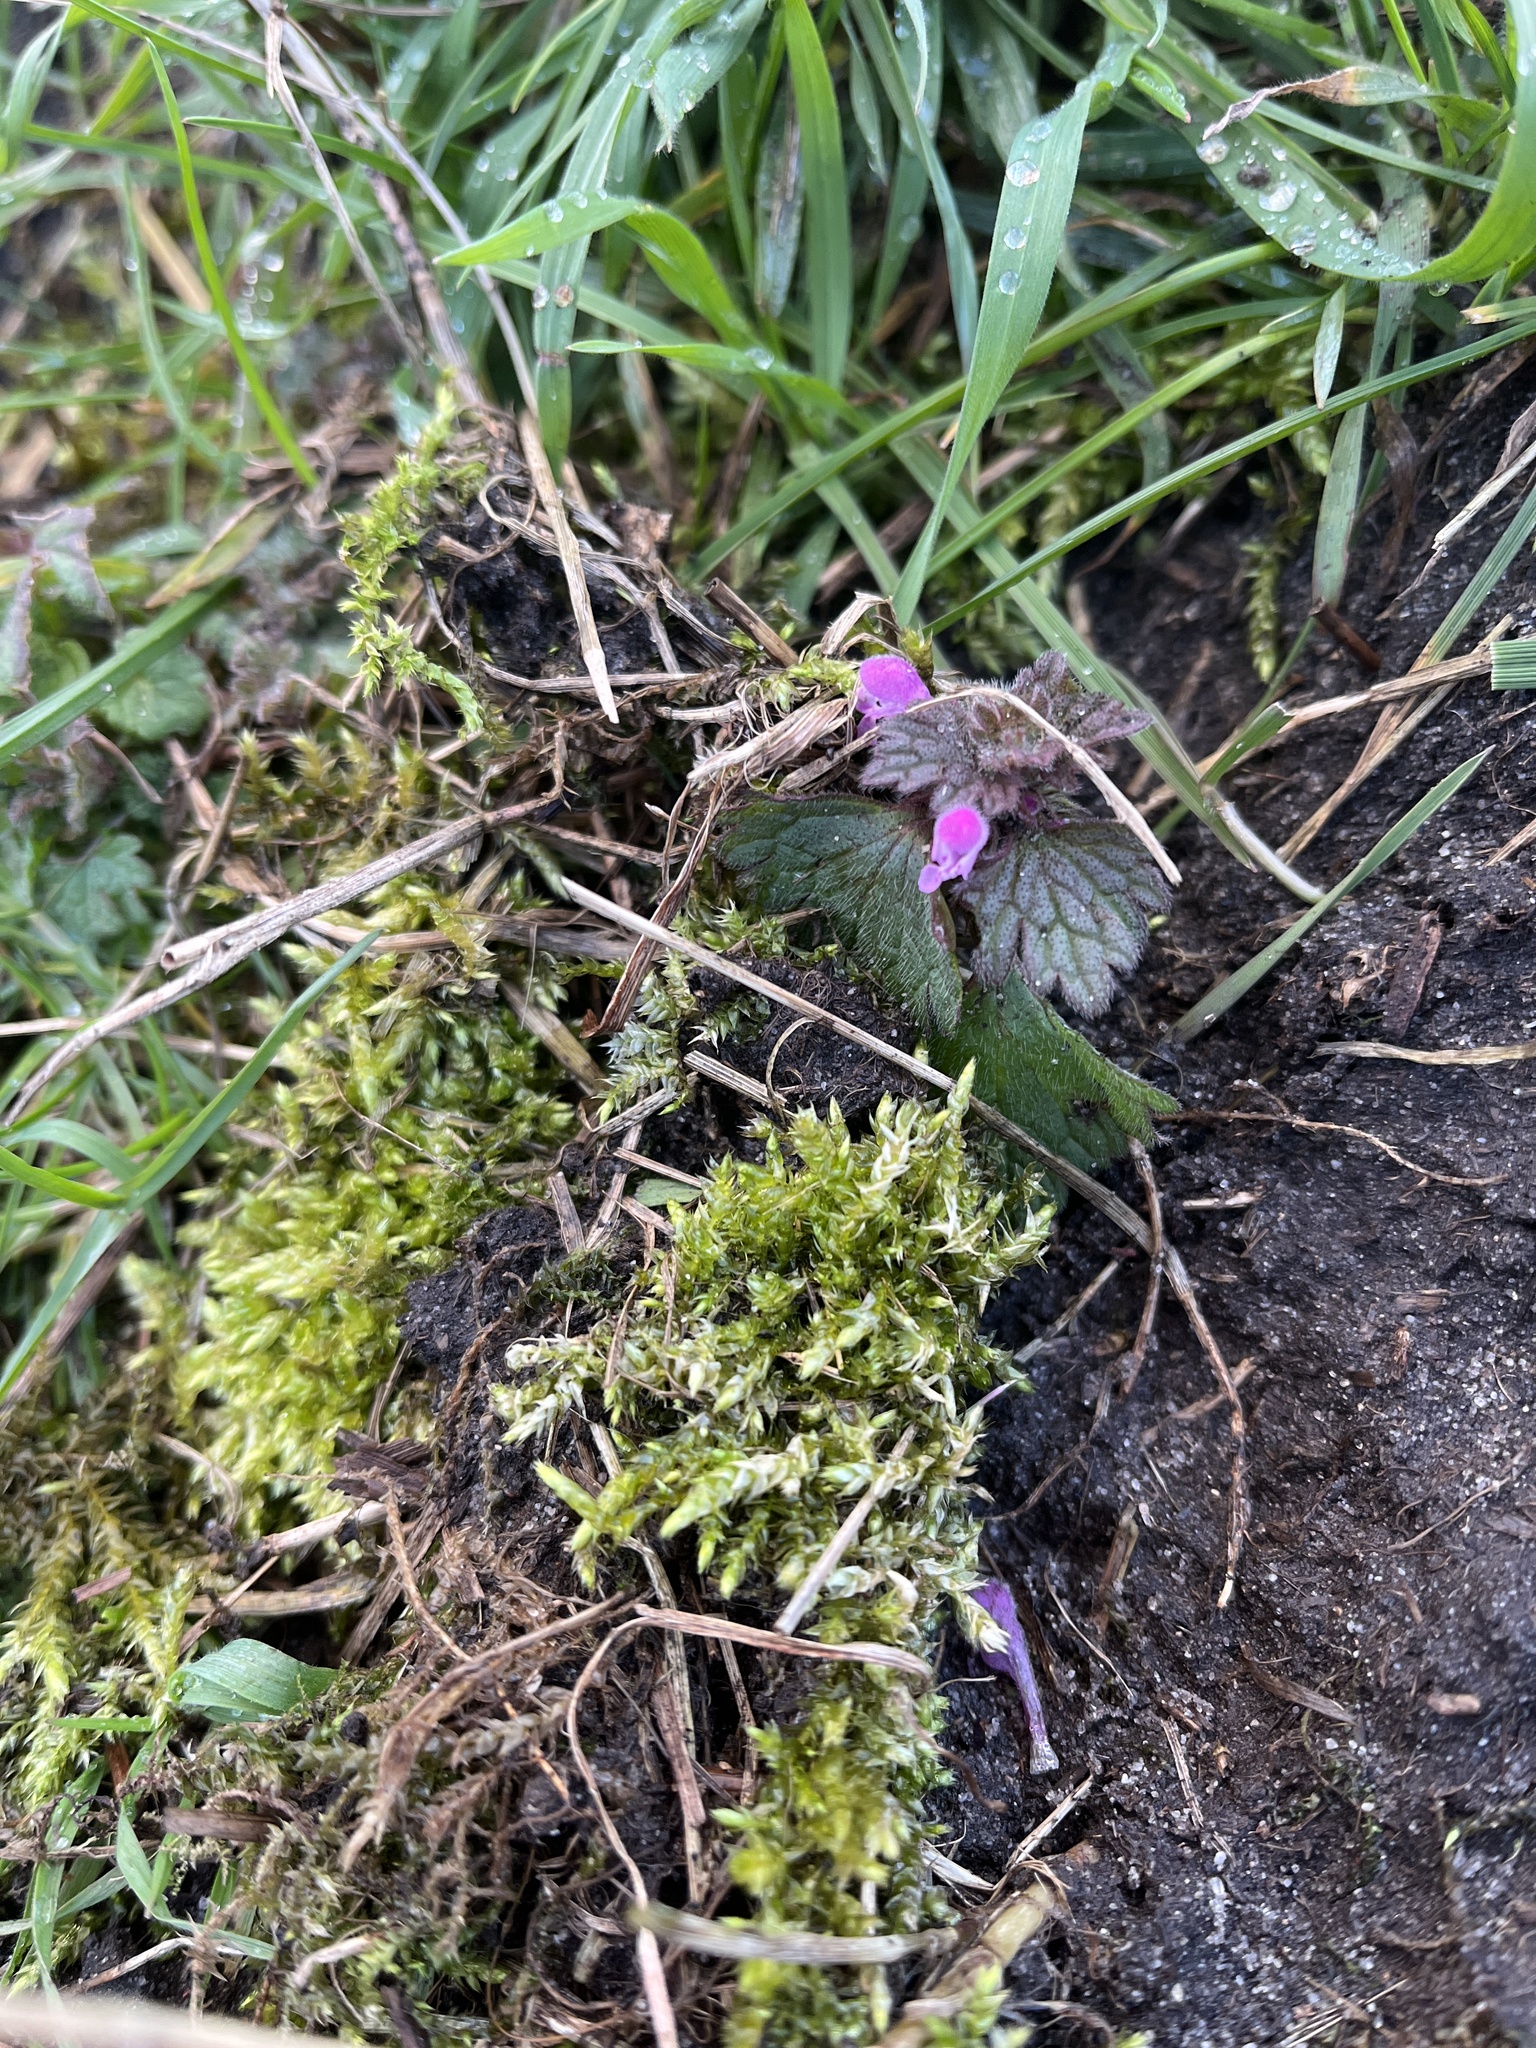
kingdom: Plantae
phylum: Tracheophyta
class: Magnoliopsida
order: Lamiales
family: Lamiaceae
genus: Lamium
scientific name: Lamium purpureum
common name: Red dead-nettle
